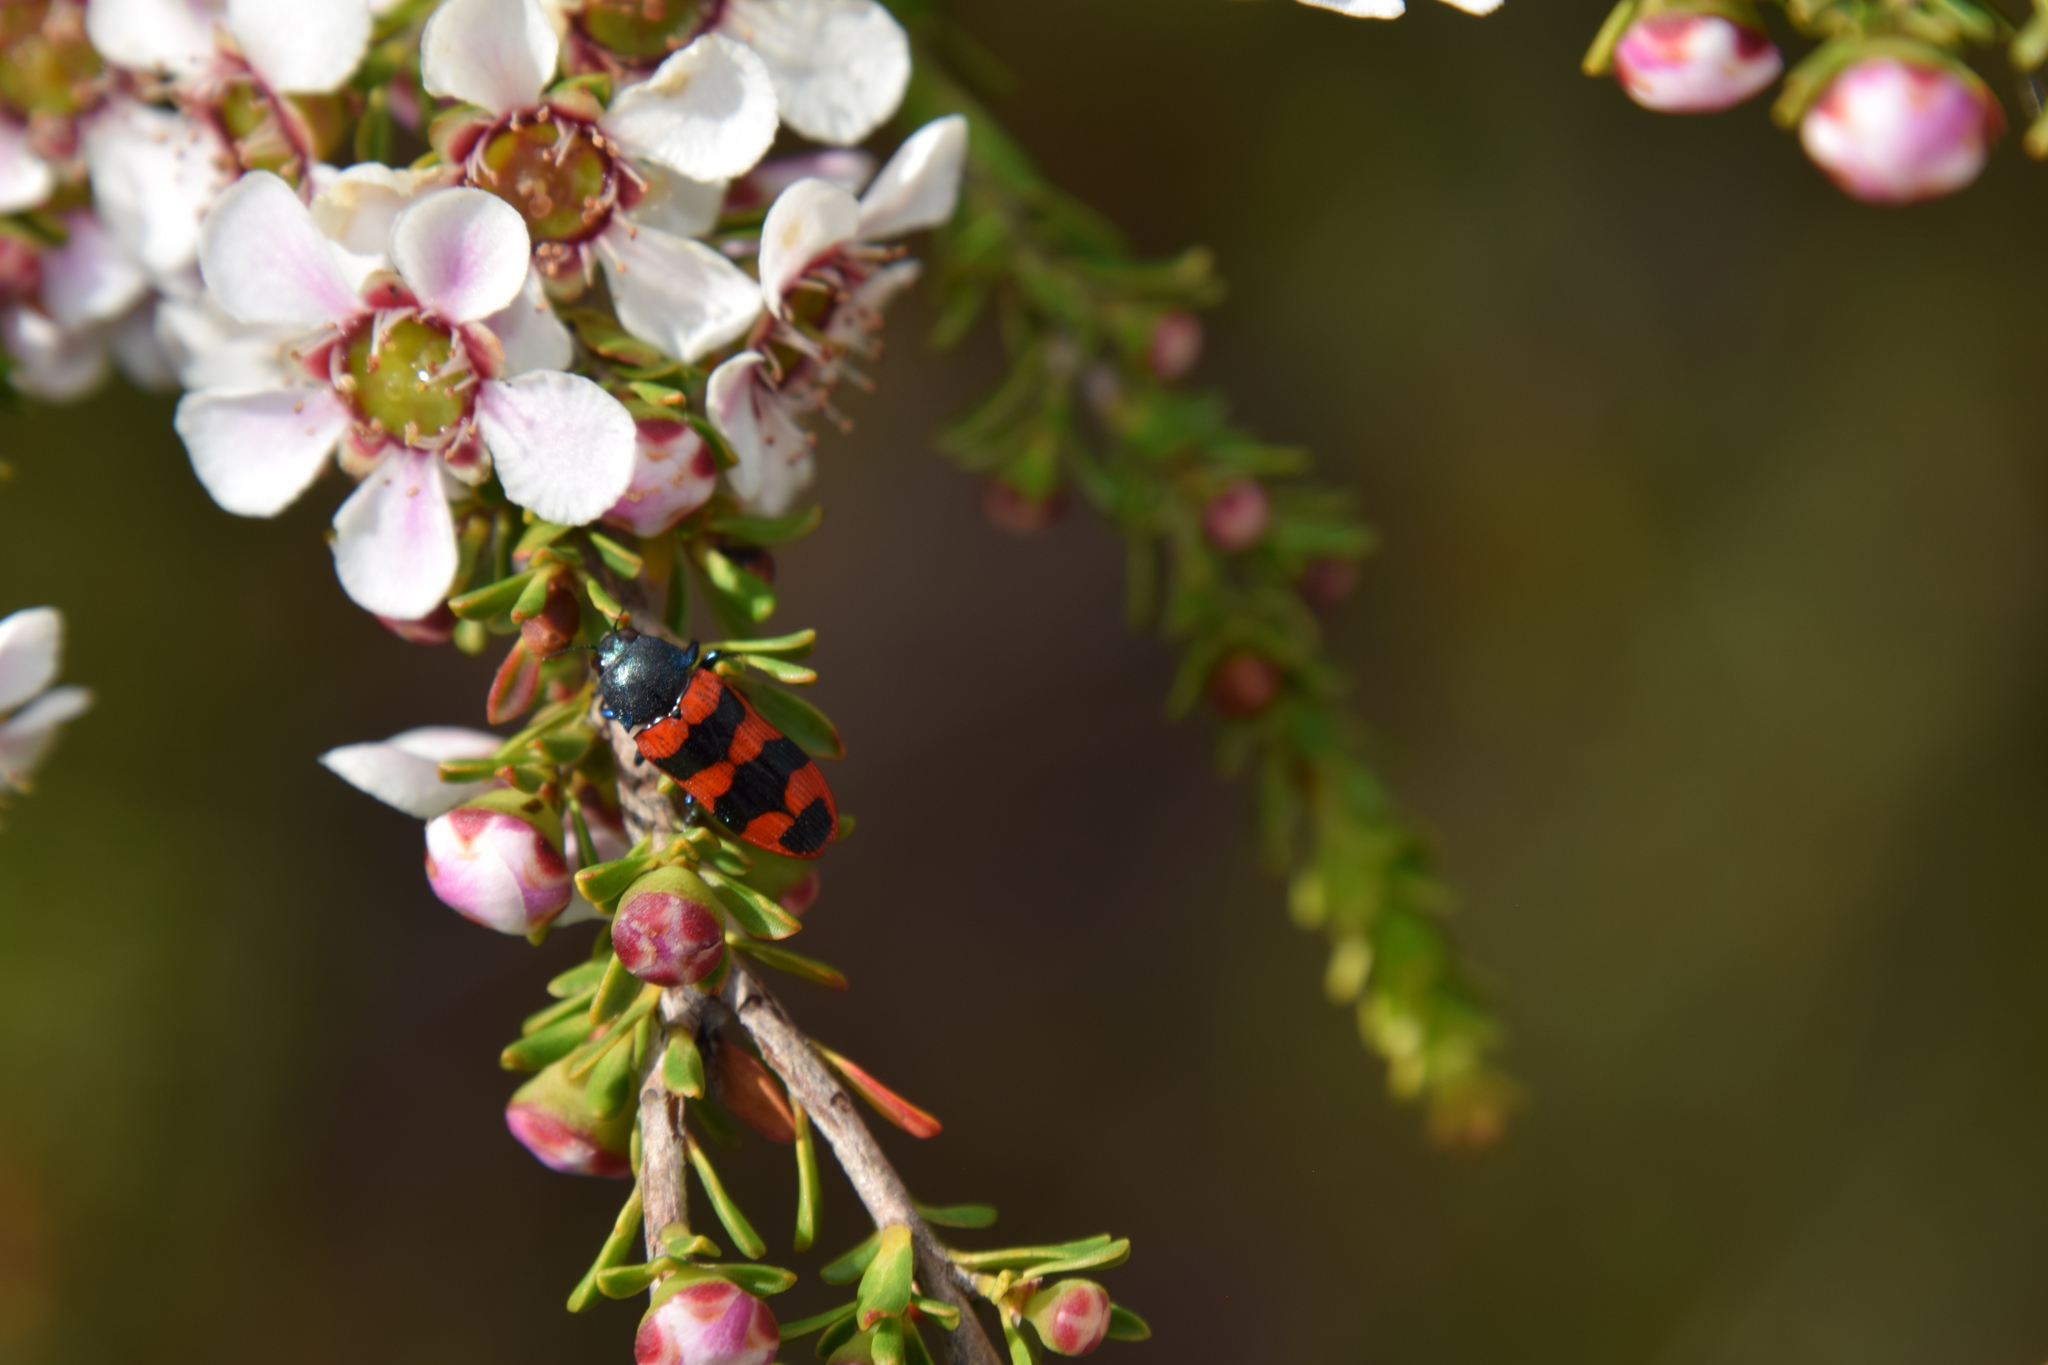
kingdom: Animalia
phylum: Arthropoda
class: Insecta
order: Coleoptera
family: Buprestidae
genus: Castiarina
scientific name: Castiarina crenata
